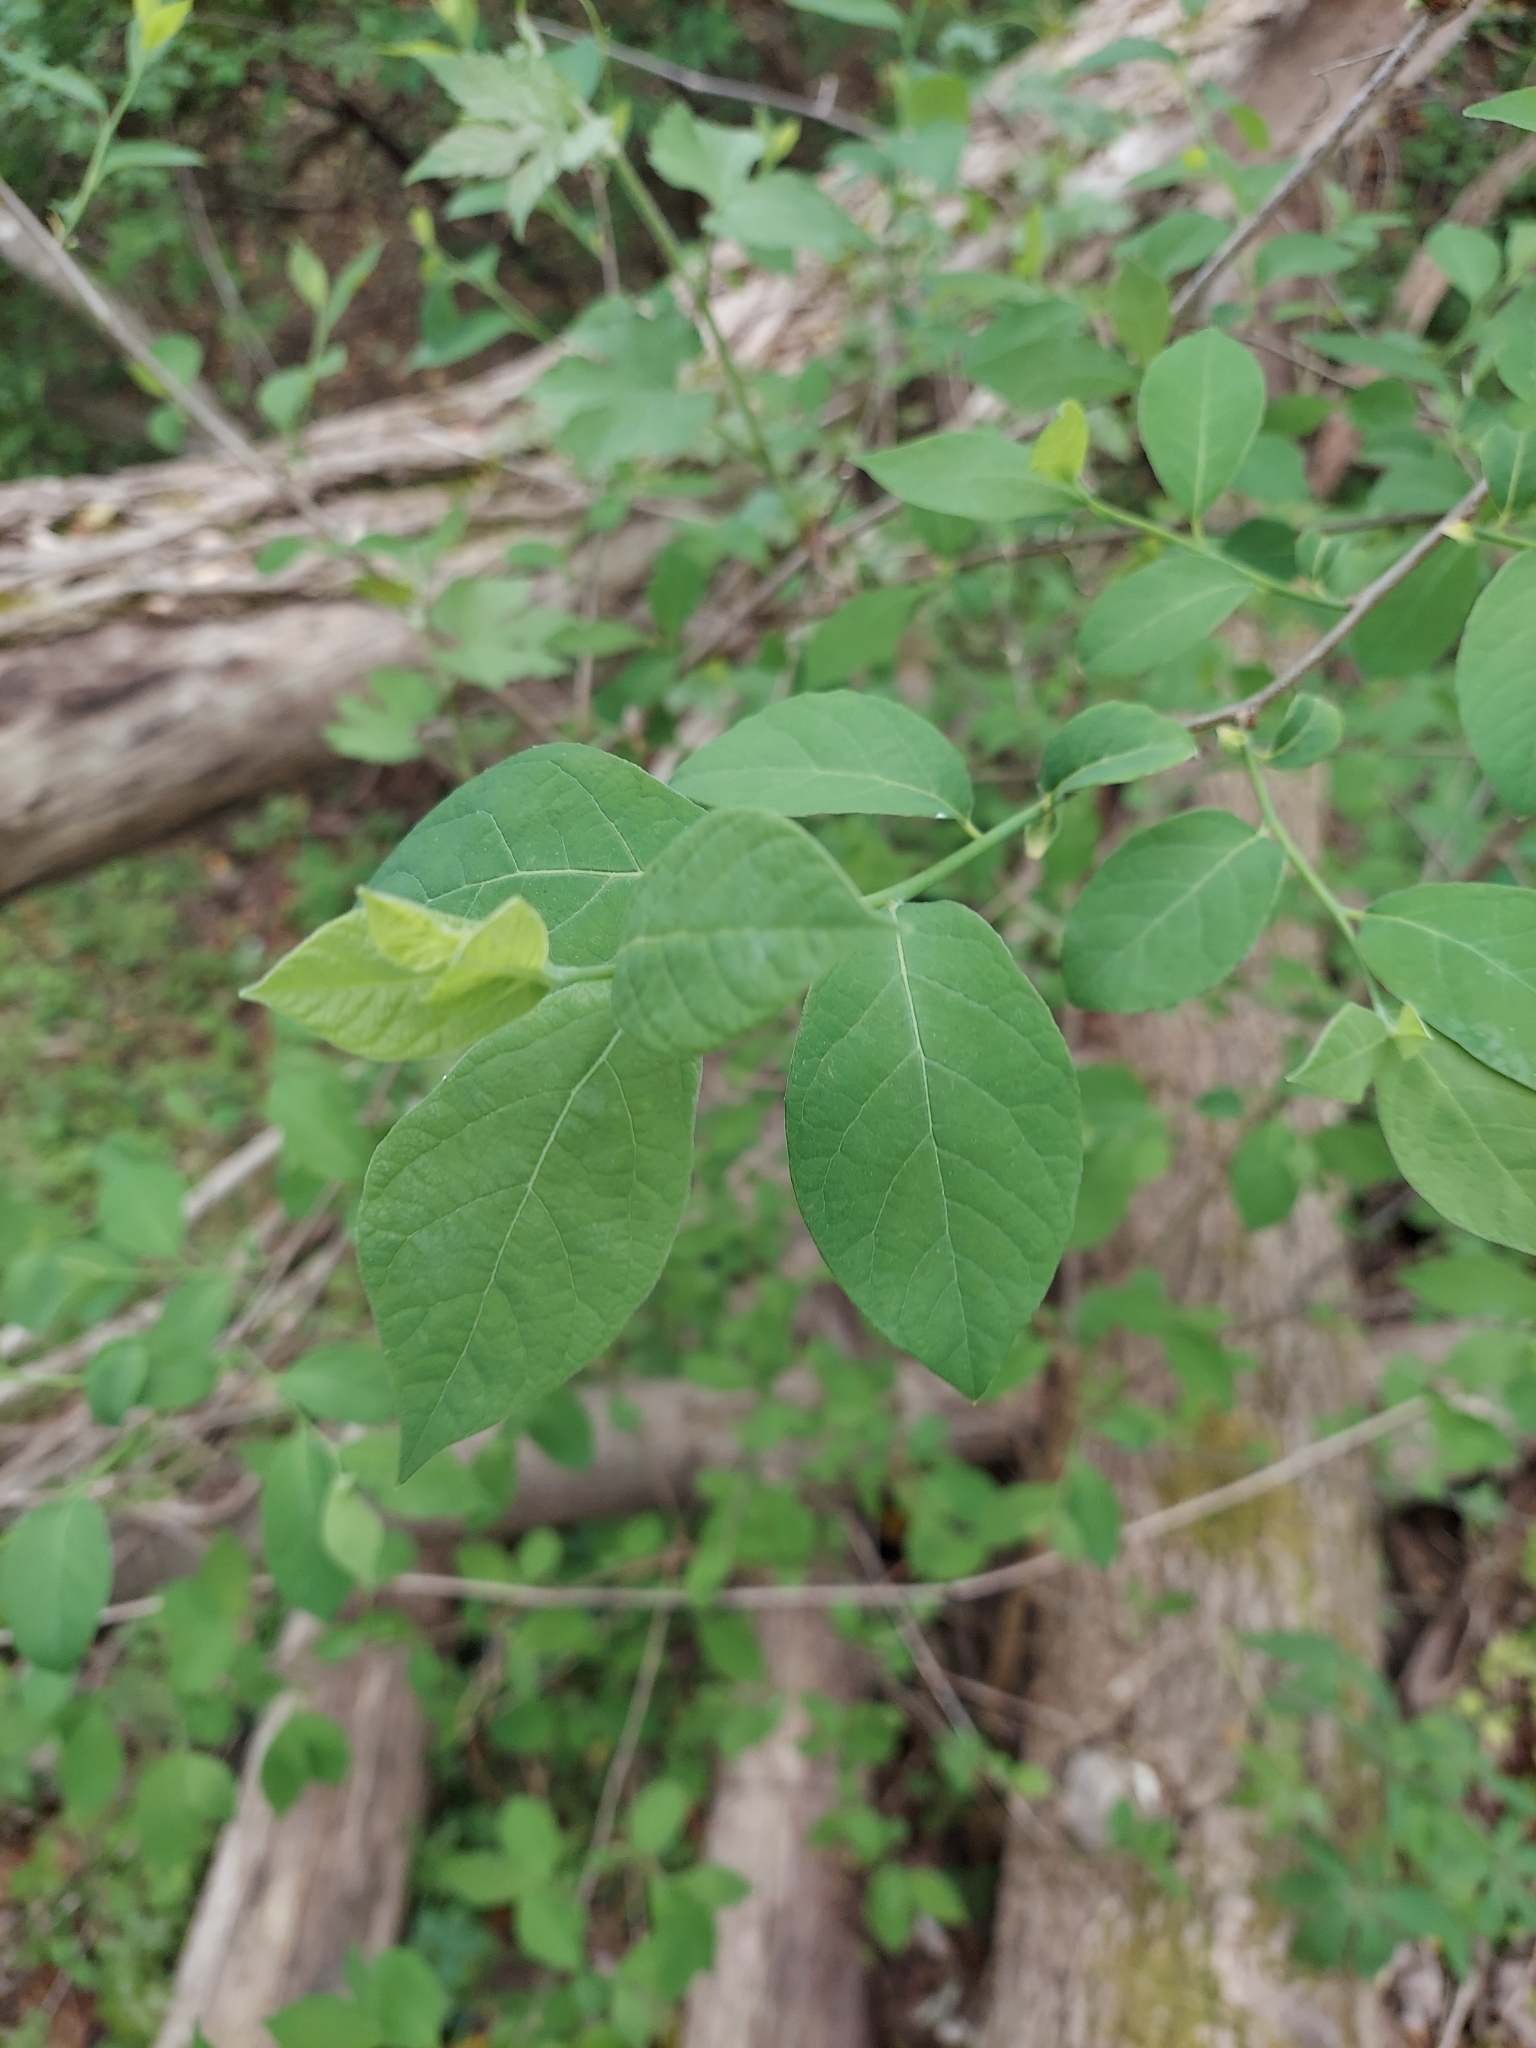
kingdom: Plantae
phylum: Tracheophyta
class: Magnoliopsida
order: Laurales
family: Lauraceae
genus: Lindera
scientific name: Lindera benzoin
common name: Spicebush
